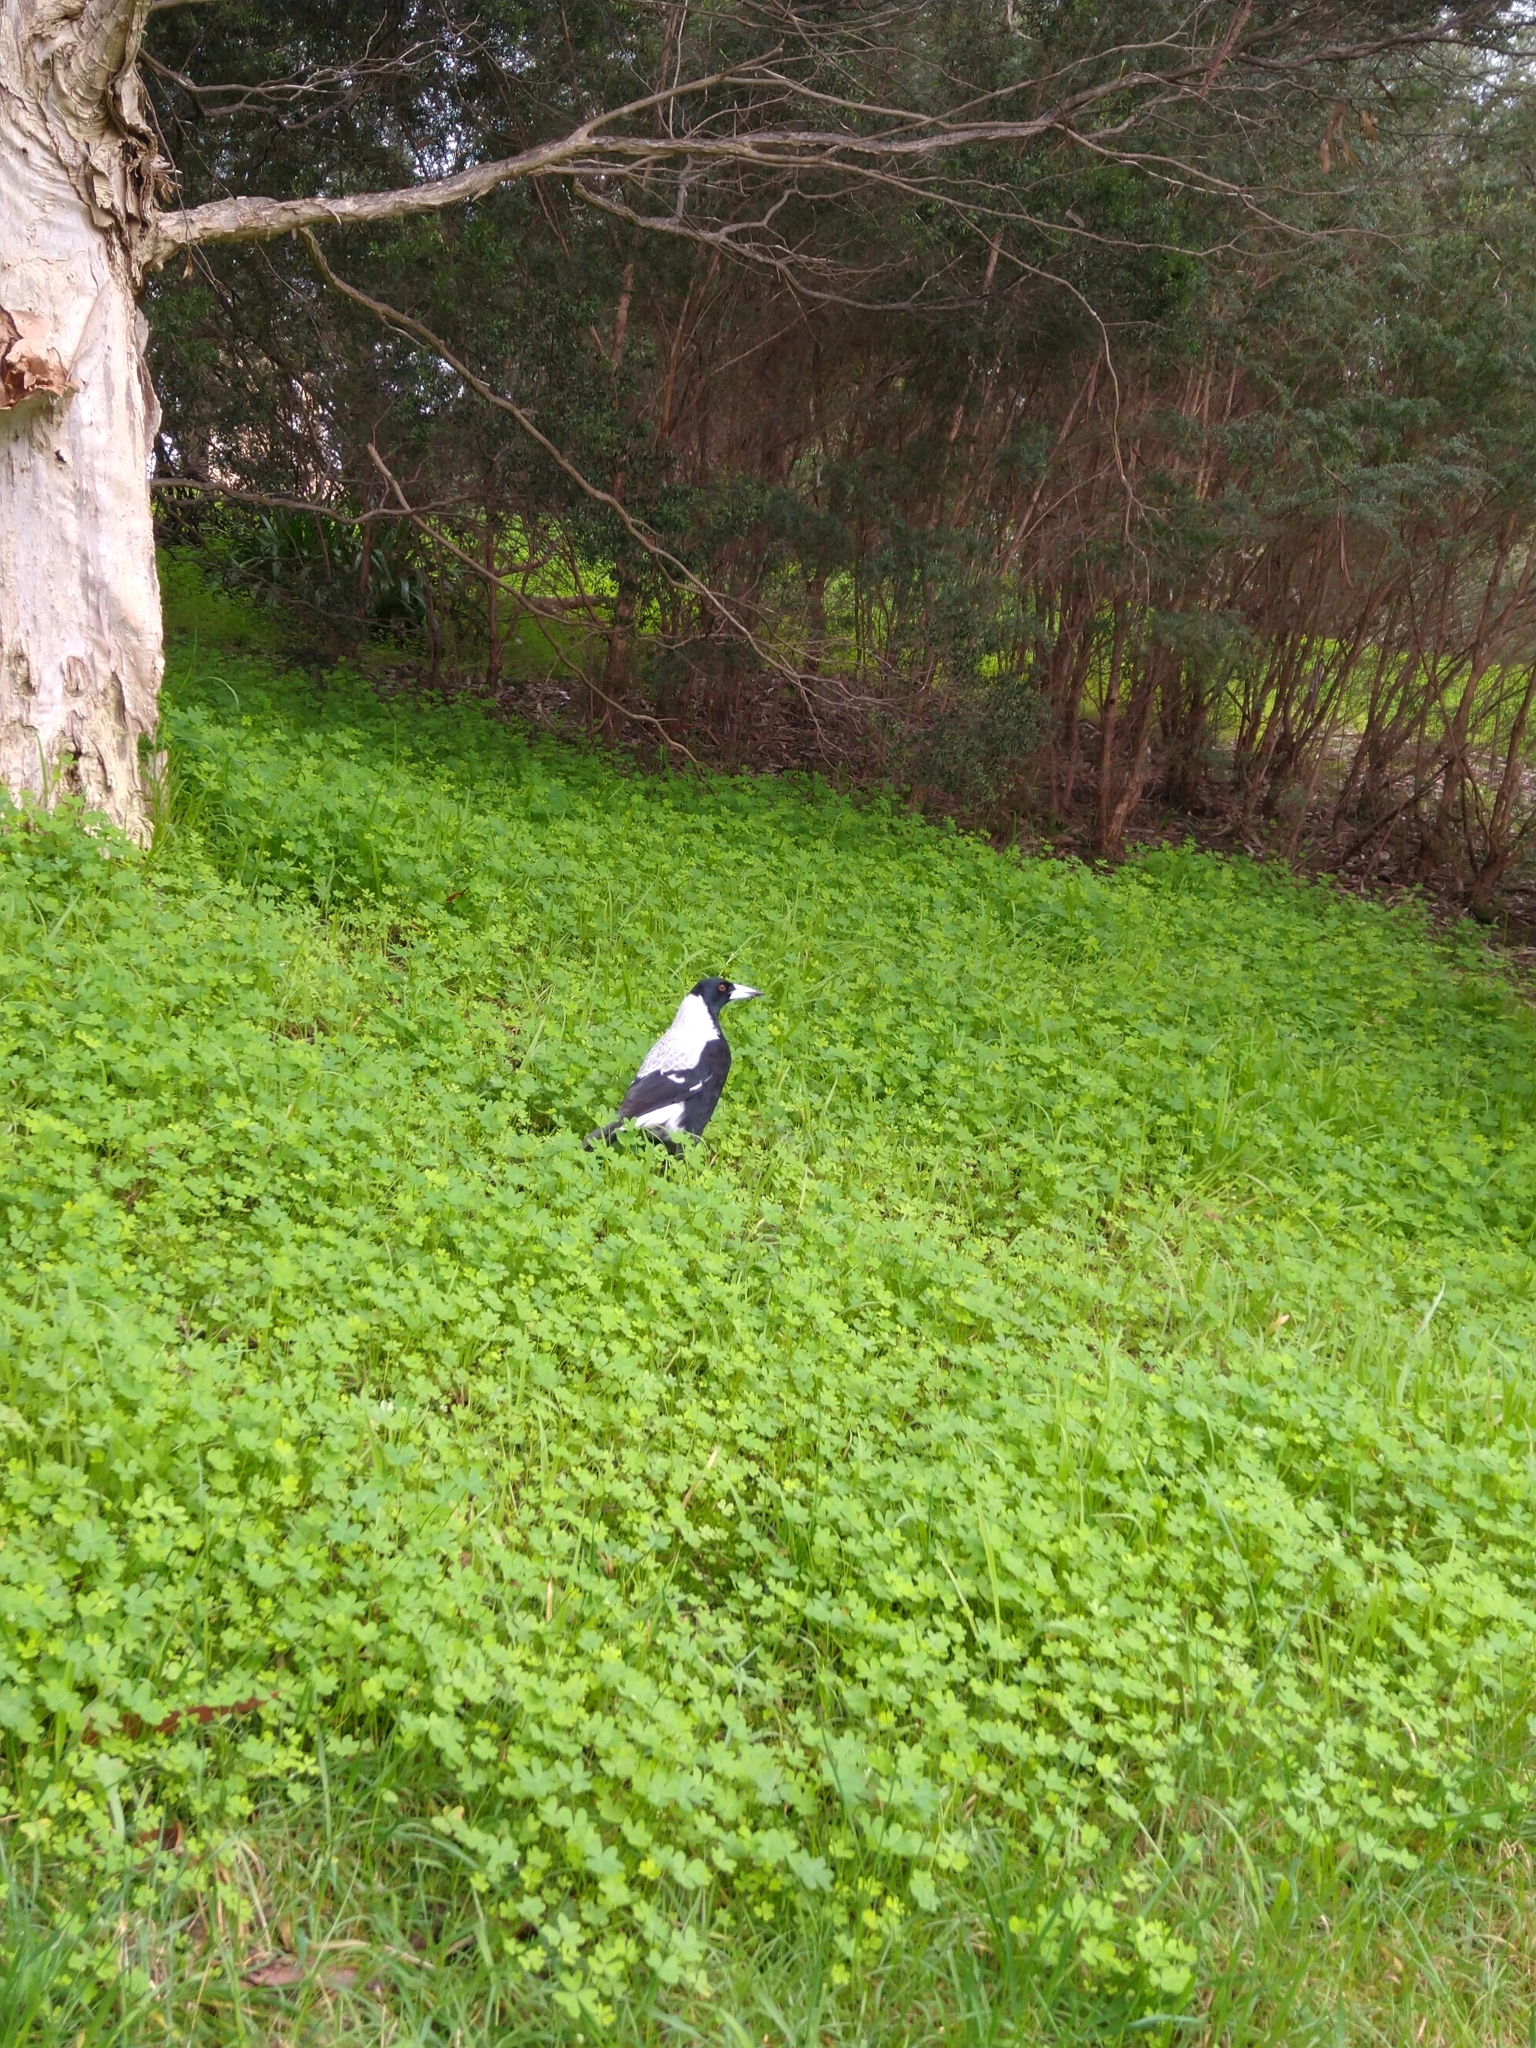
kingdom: Animalia
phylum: Chordata
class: Aves
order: Passeriformes
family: Cracticidae
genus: Gymnorhina
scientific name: Gymnorhina tibicen
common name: Australian magpie
